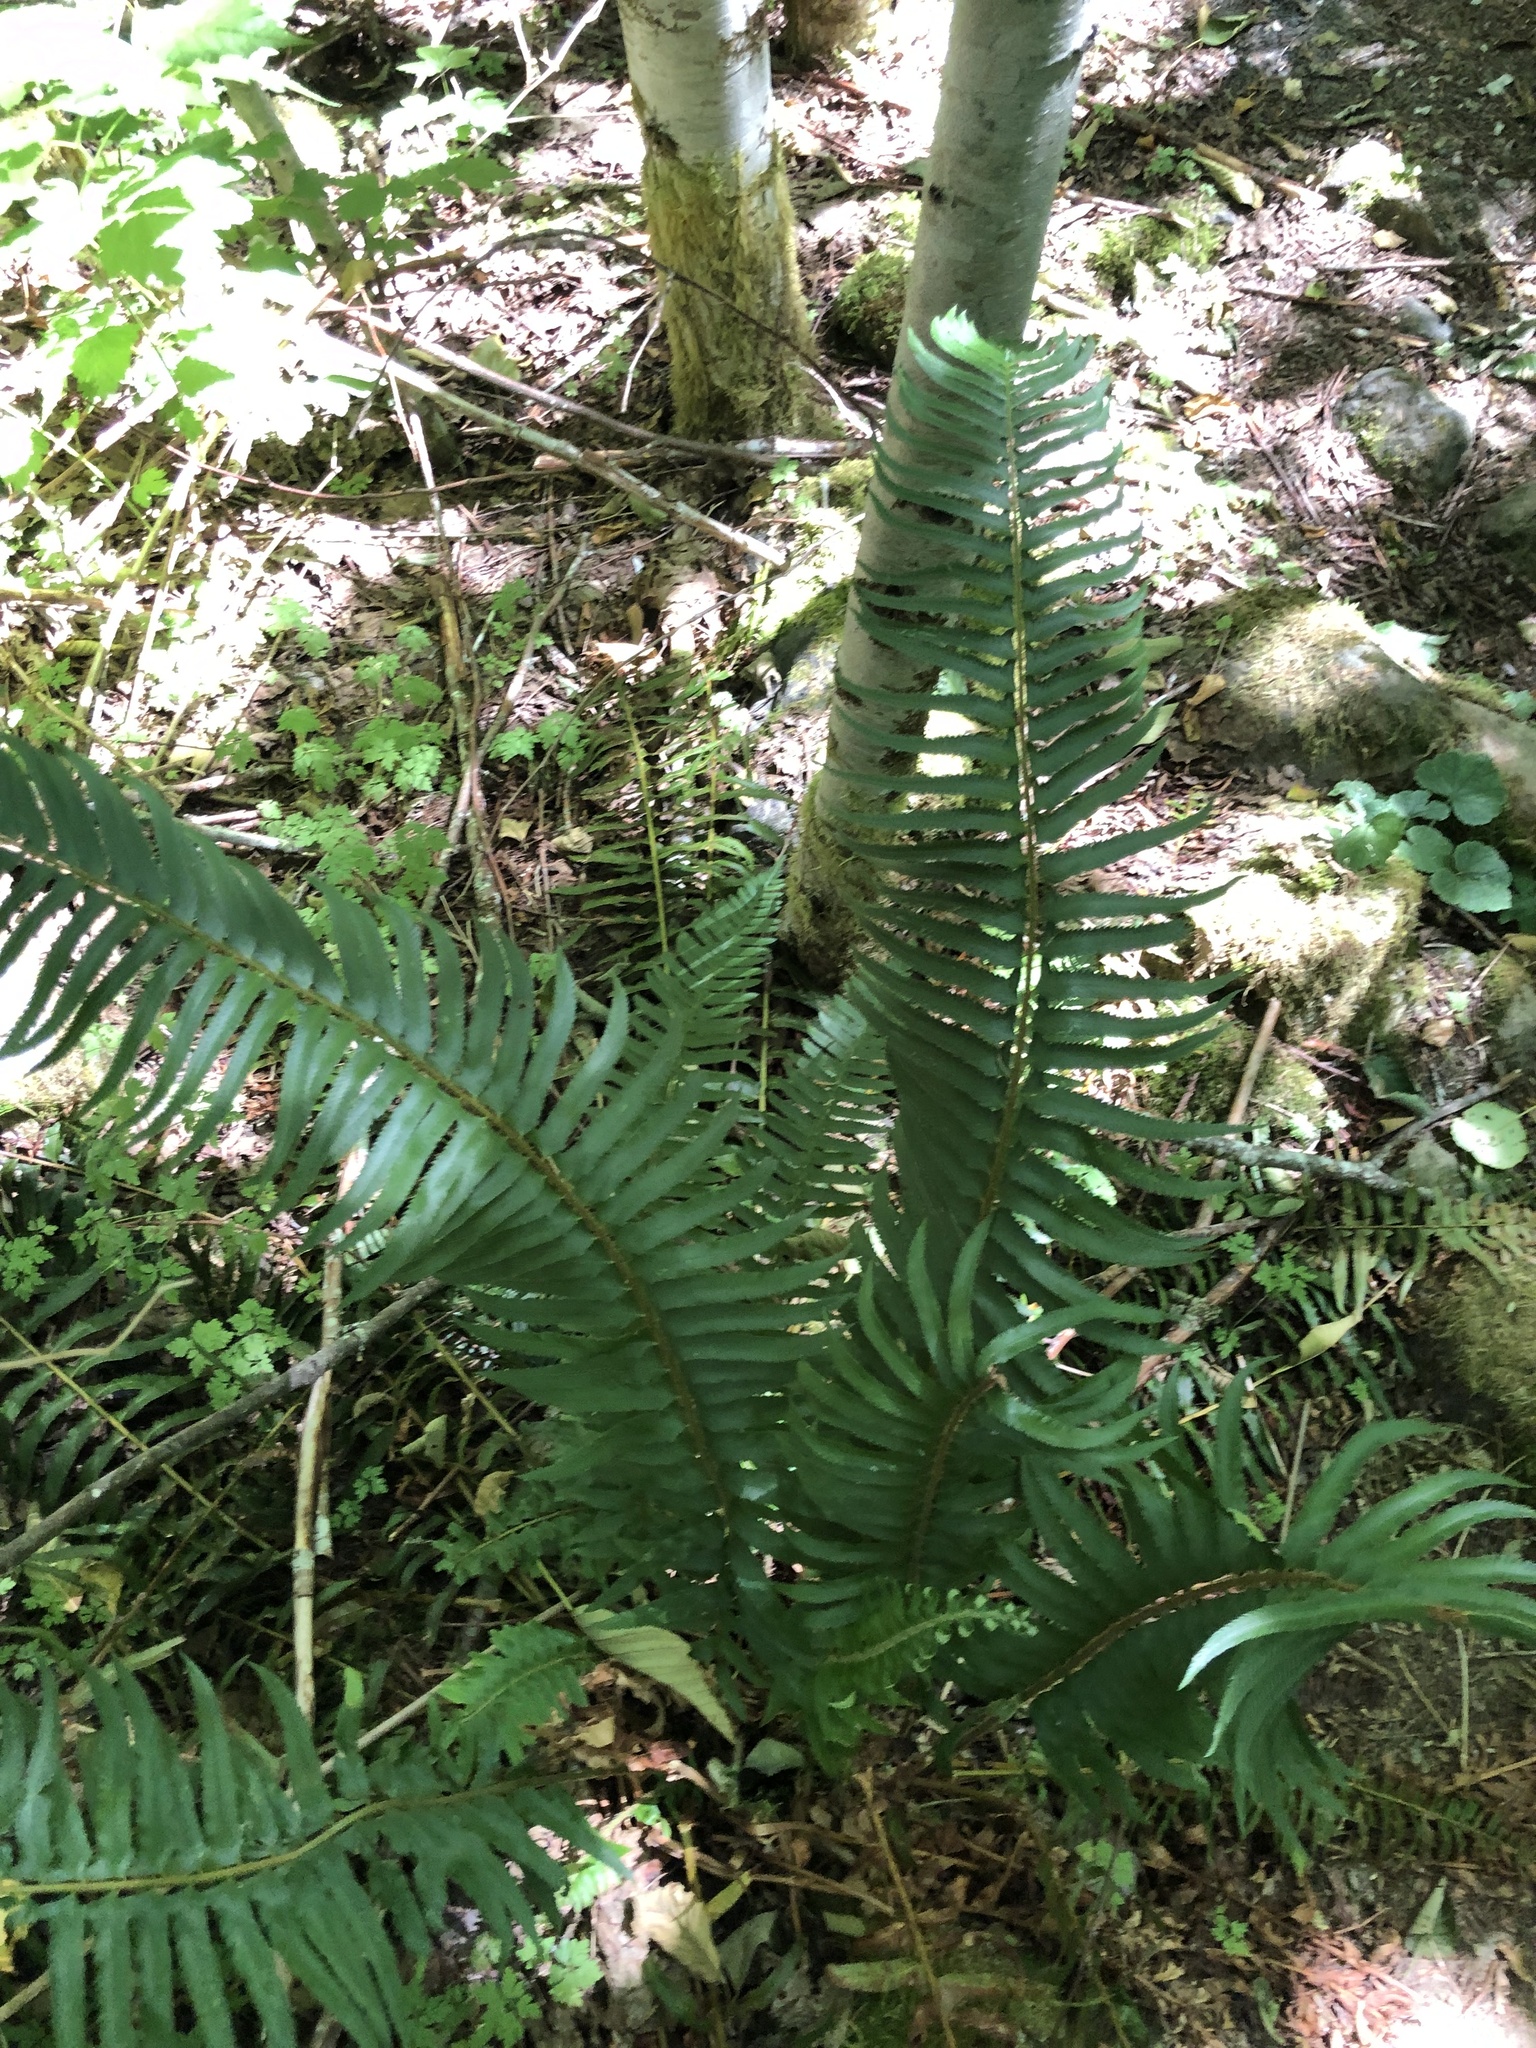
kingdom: Plantae
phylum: Tracheophyta
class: Polypodiopsida
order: Polypodiales
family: Dryopteridaceae
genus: Polystichum
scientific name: Polystichum munitum
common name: Western sword-fern
